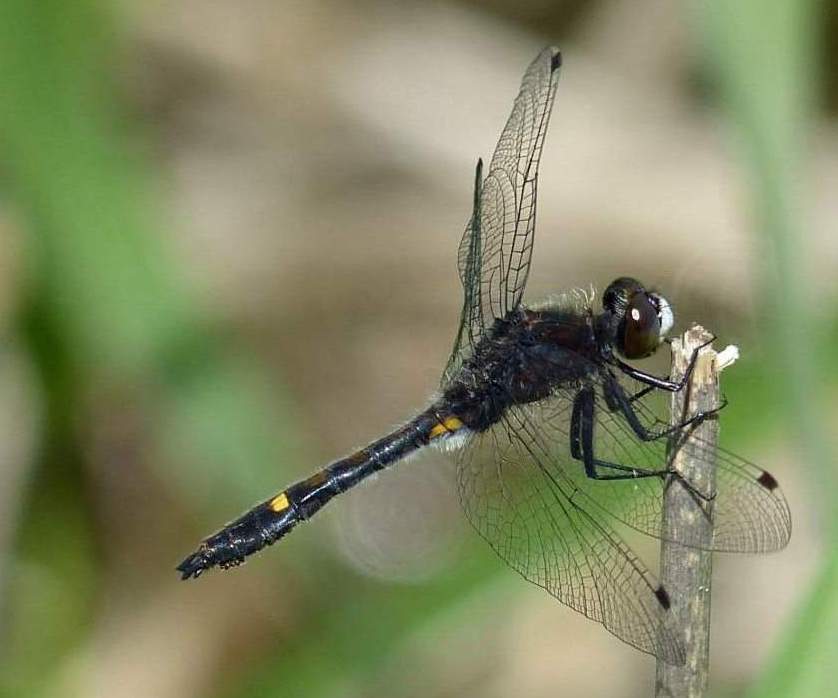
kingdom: Animalia
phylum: Arthropoda
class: Insecta
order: Odonata
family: Libellulidae
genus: Leucorrhinia
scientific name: Leucorrhinia intacta
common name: Dot-tailed whiteface
